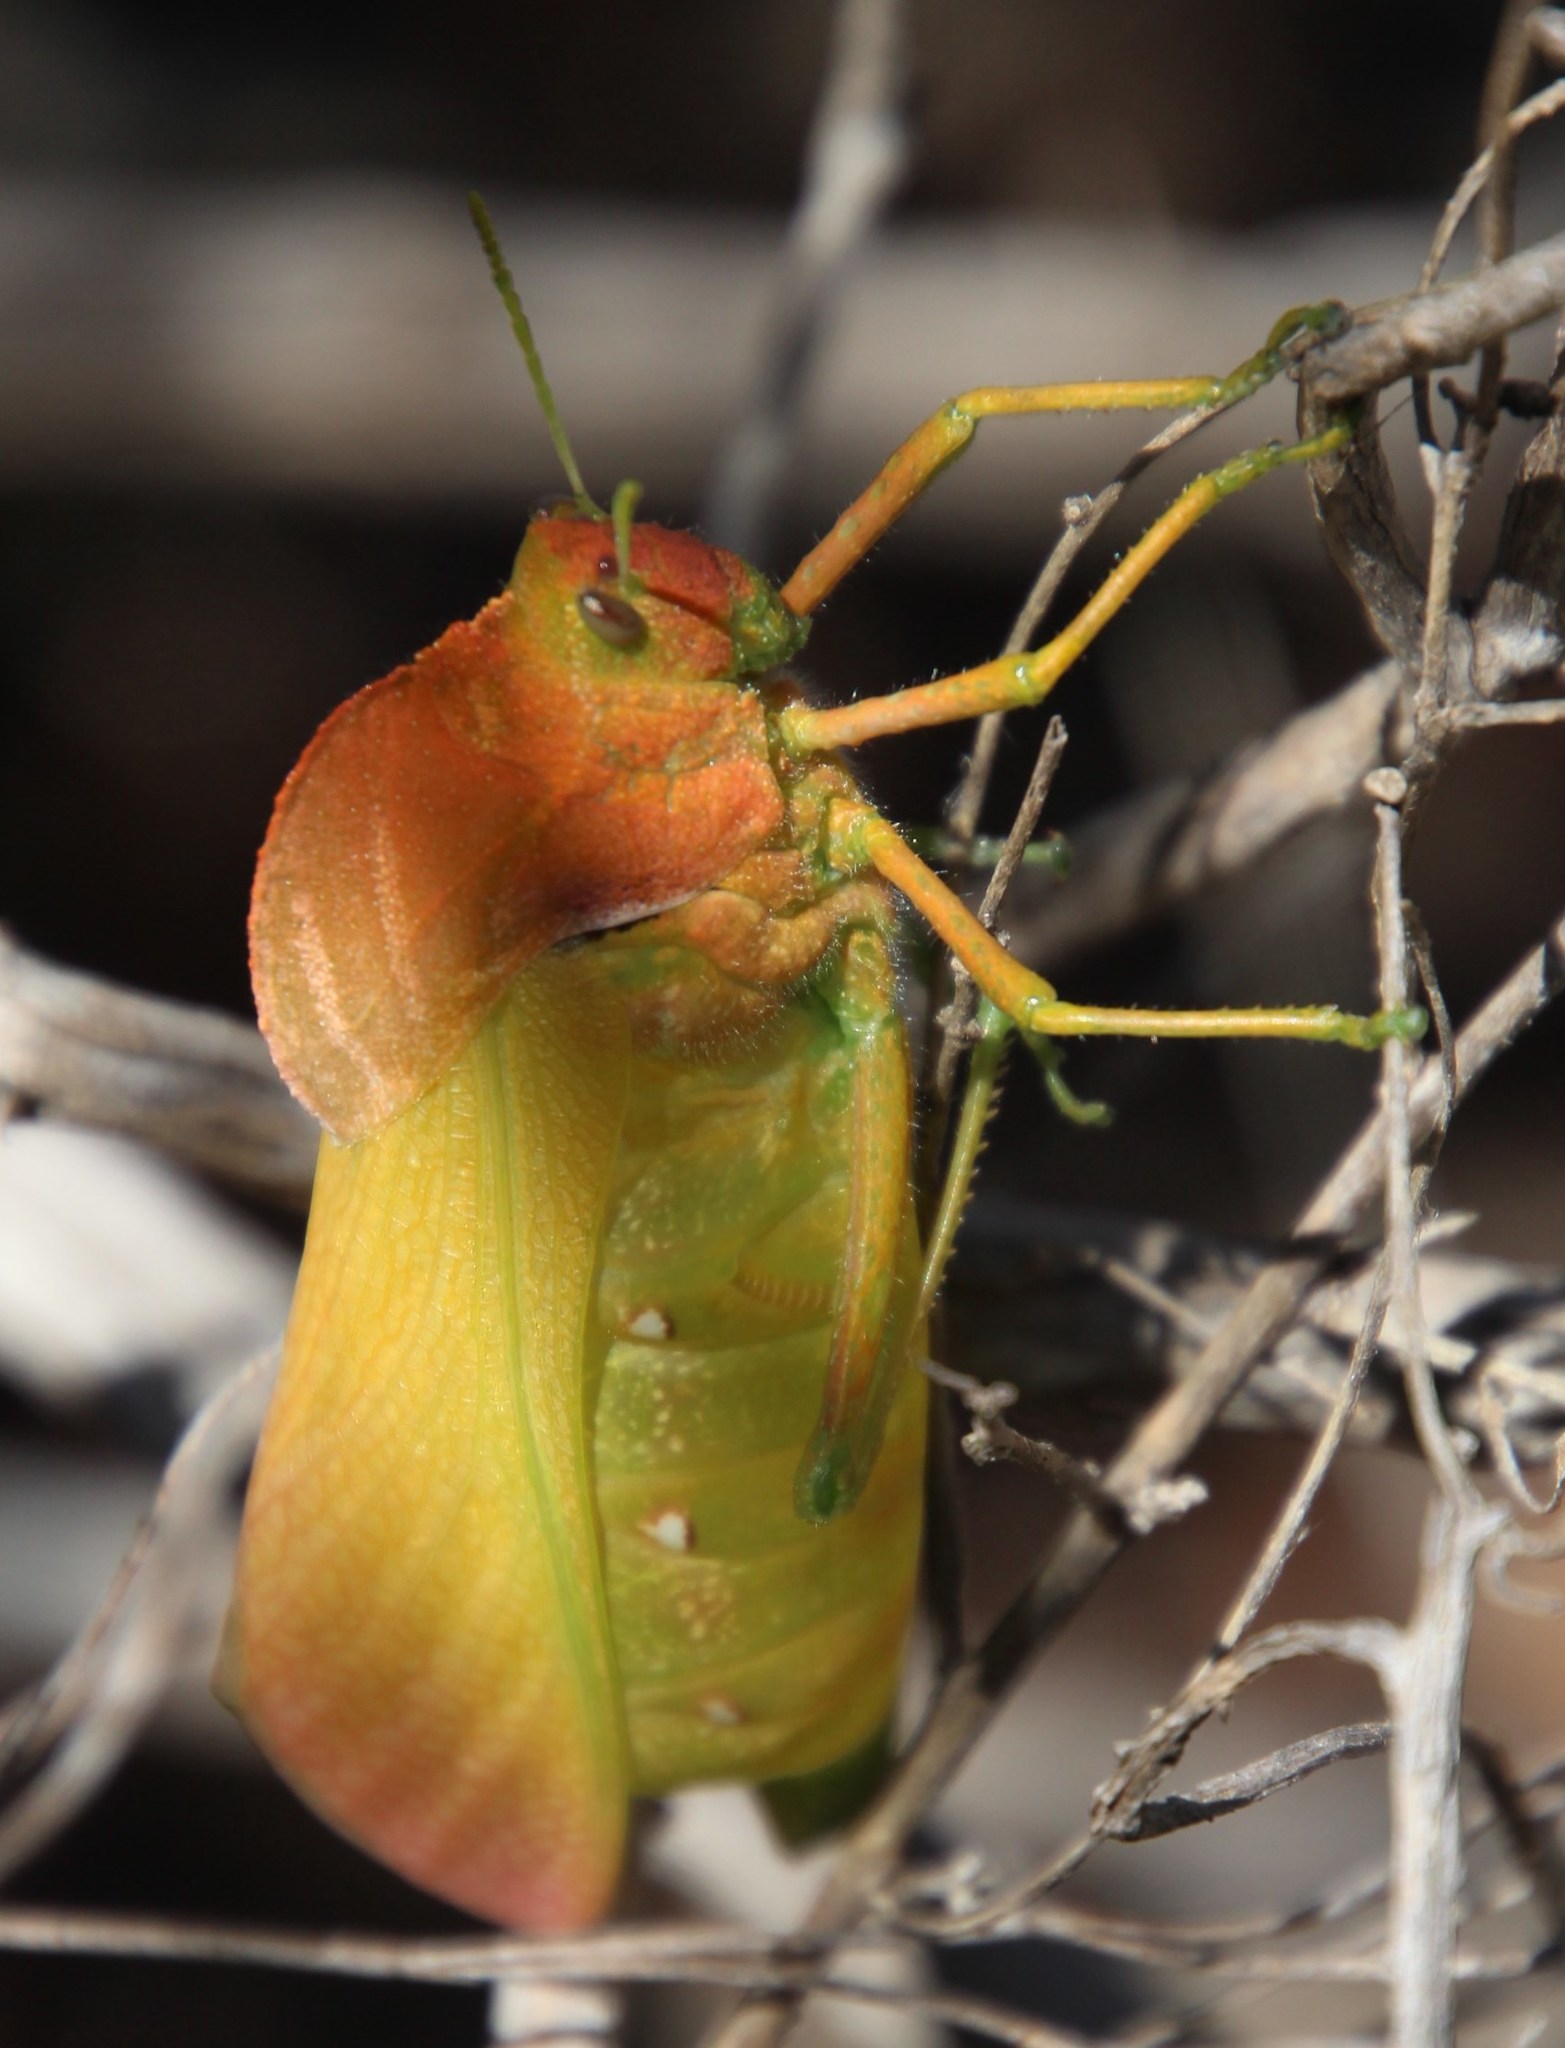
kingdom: Animalia
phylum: Arthropoda
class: Insecta
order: Orthoptera
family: Pneumoridae
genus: Bullacris
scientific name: Bullacris unicolor
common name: Bladder grasshopper
